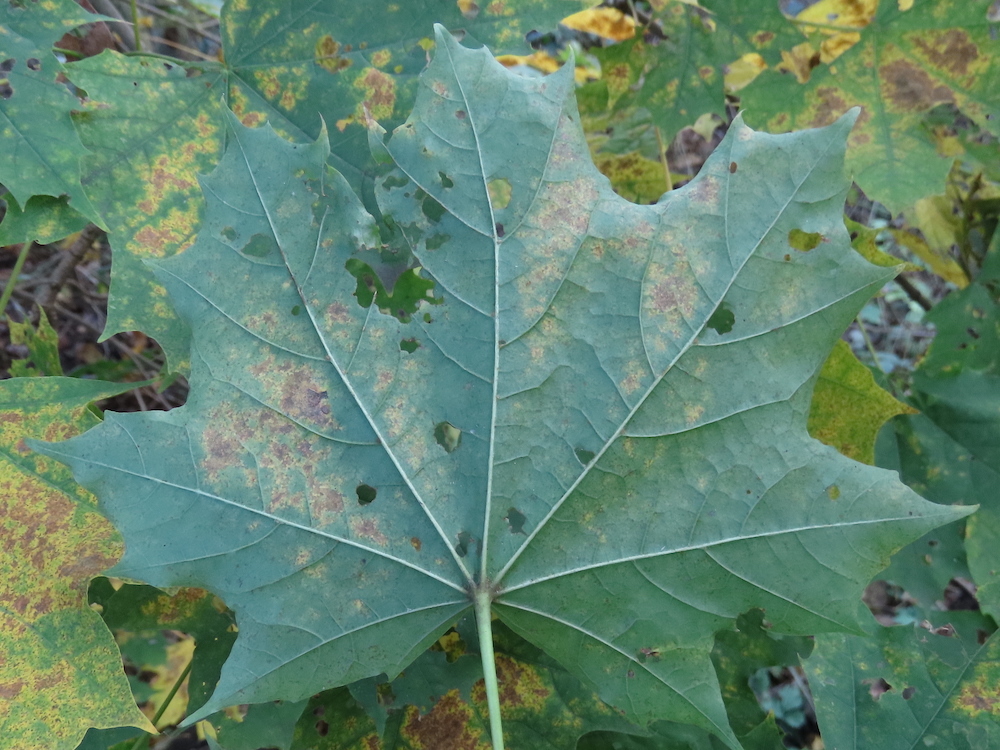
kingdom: Plantae
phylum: Tracheophyta
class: Magnoliopsida
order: Sapindales
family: Sapindaceae
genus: Acer
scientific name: Acer platanoides
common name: Norway maple
